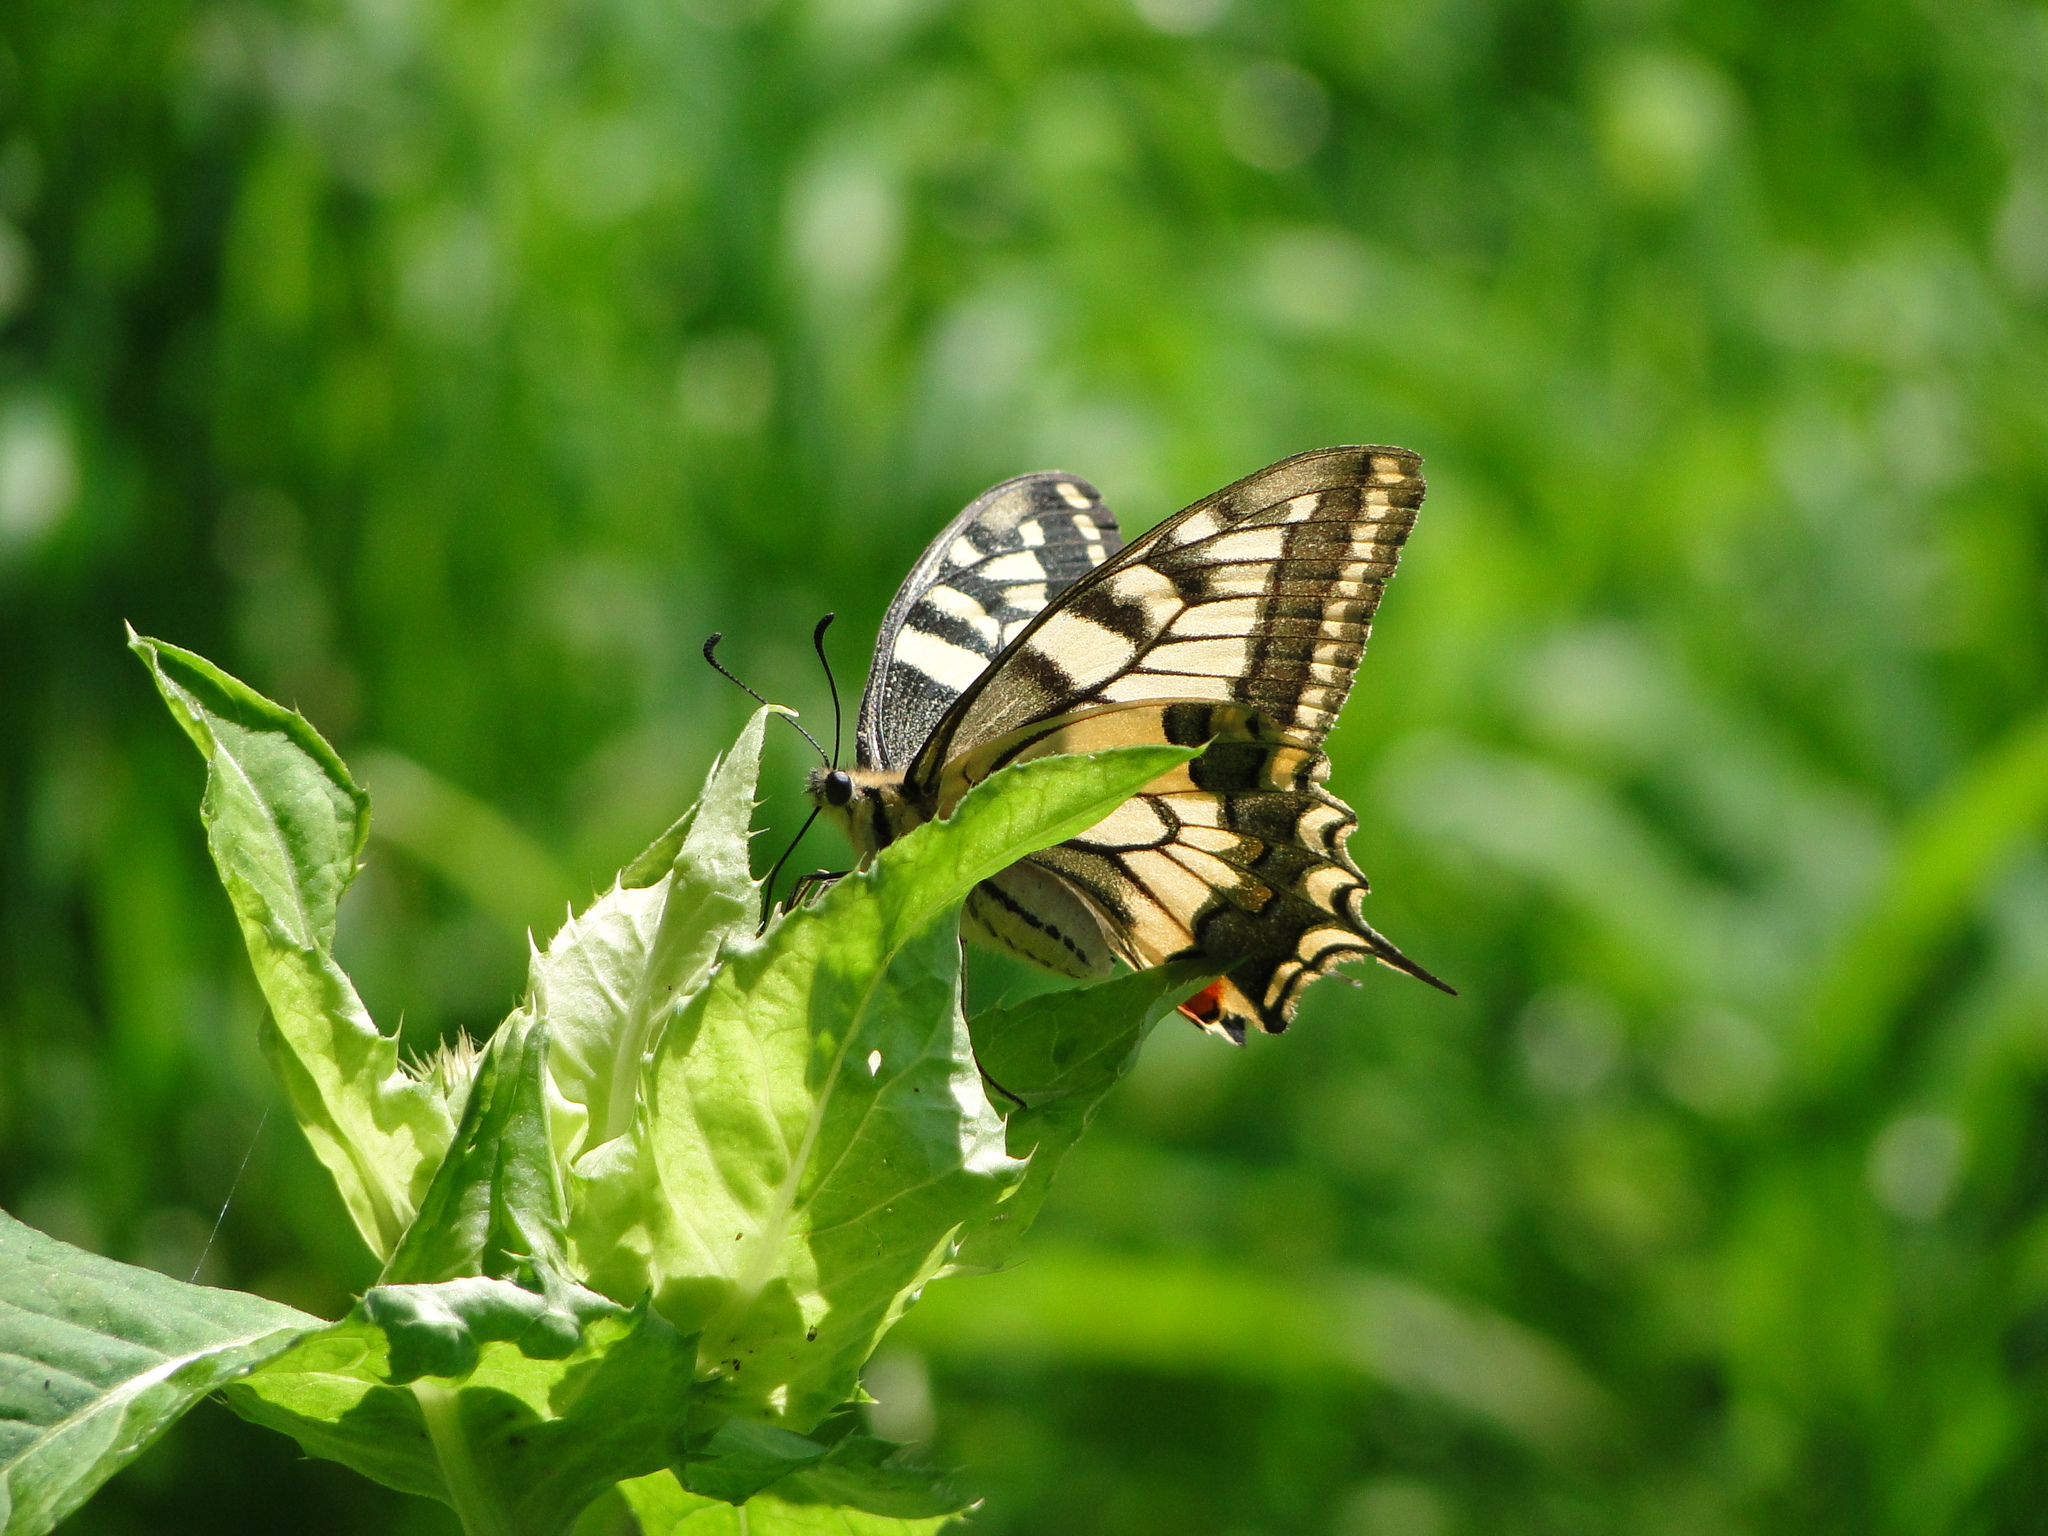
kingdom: Animalia
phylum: Arthropoda
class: Insecta
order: Lepidoptera
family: Papilionidae
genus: Papilio
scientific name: Papilio machaon
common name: Swallowtail
